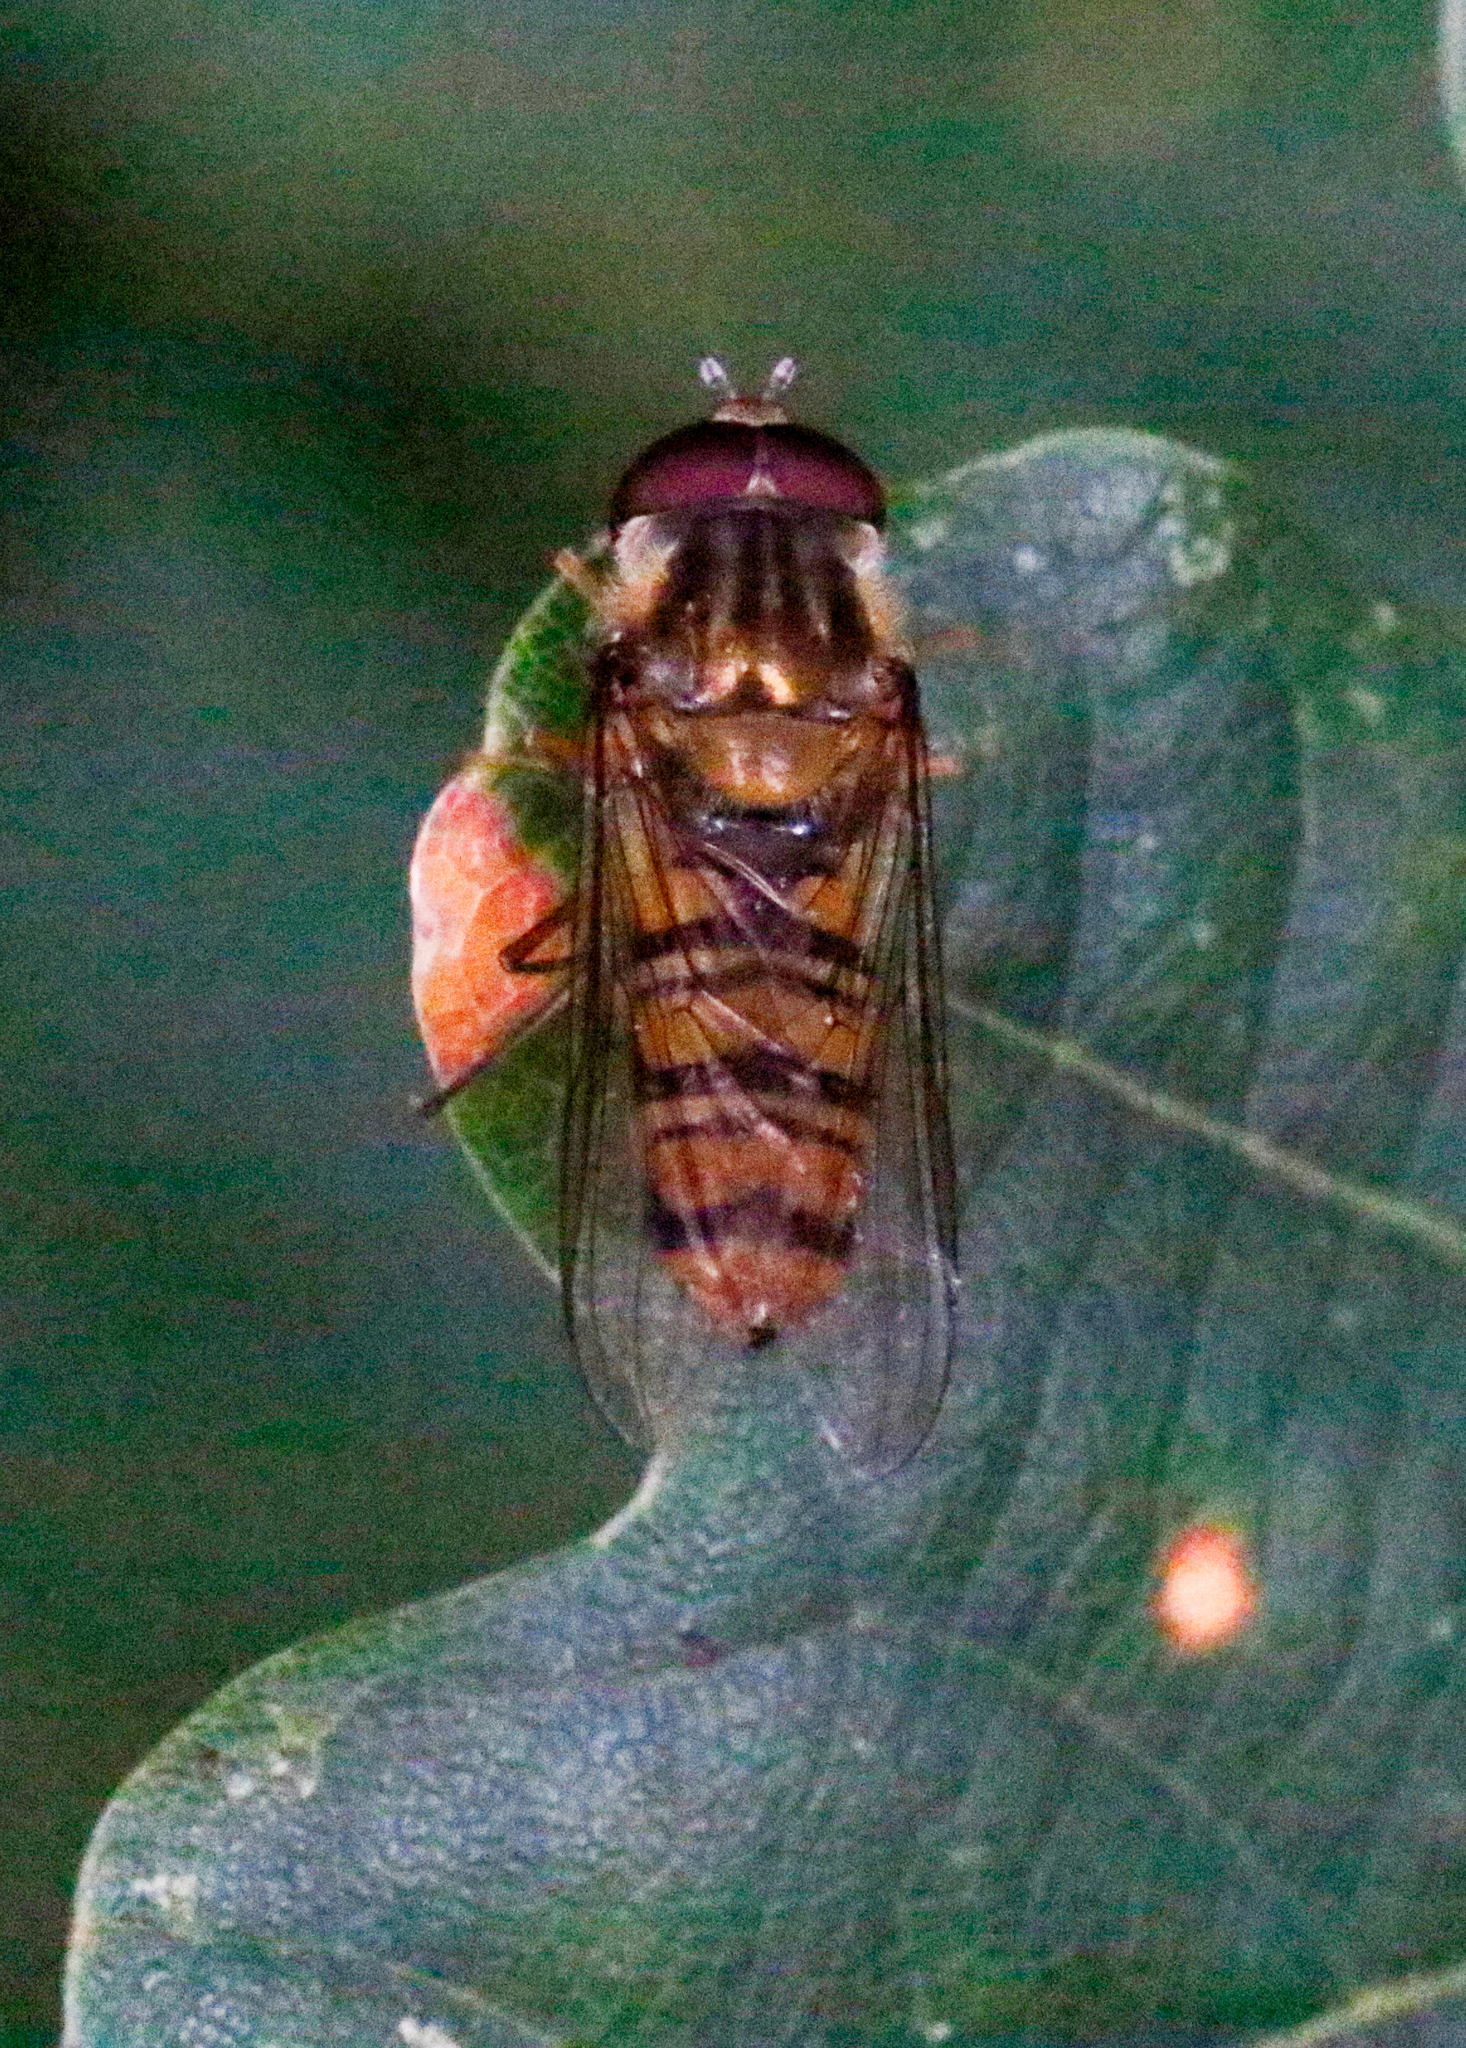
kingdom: Animalia
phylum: Arthropoda
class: Insecta
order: Diptera
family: Syrphidae
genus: Episyrphus
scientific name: Episyrphus balteatus
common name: Marmalade hoverfly
